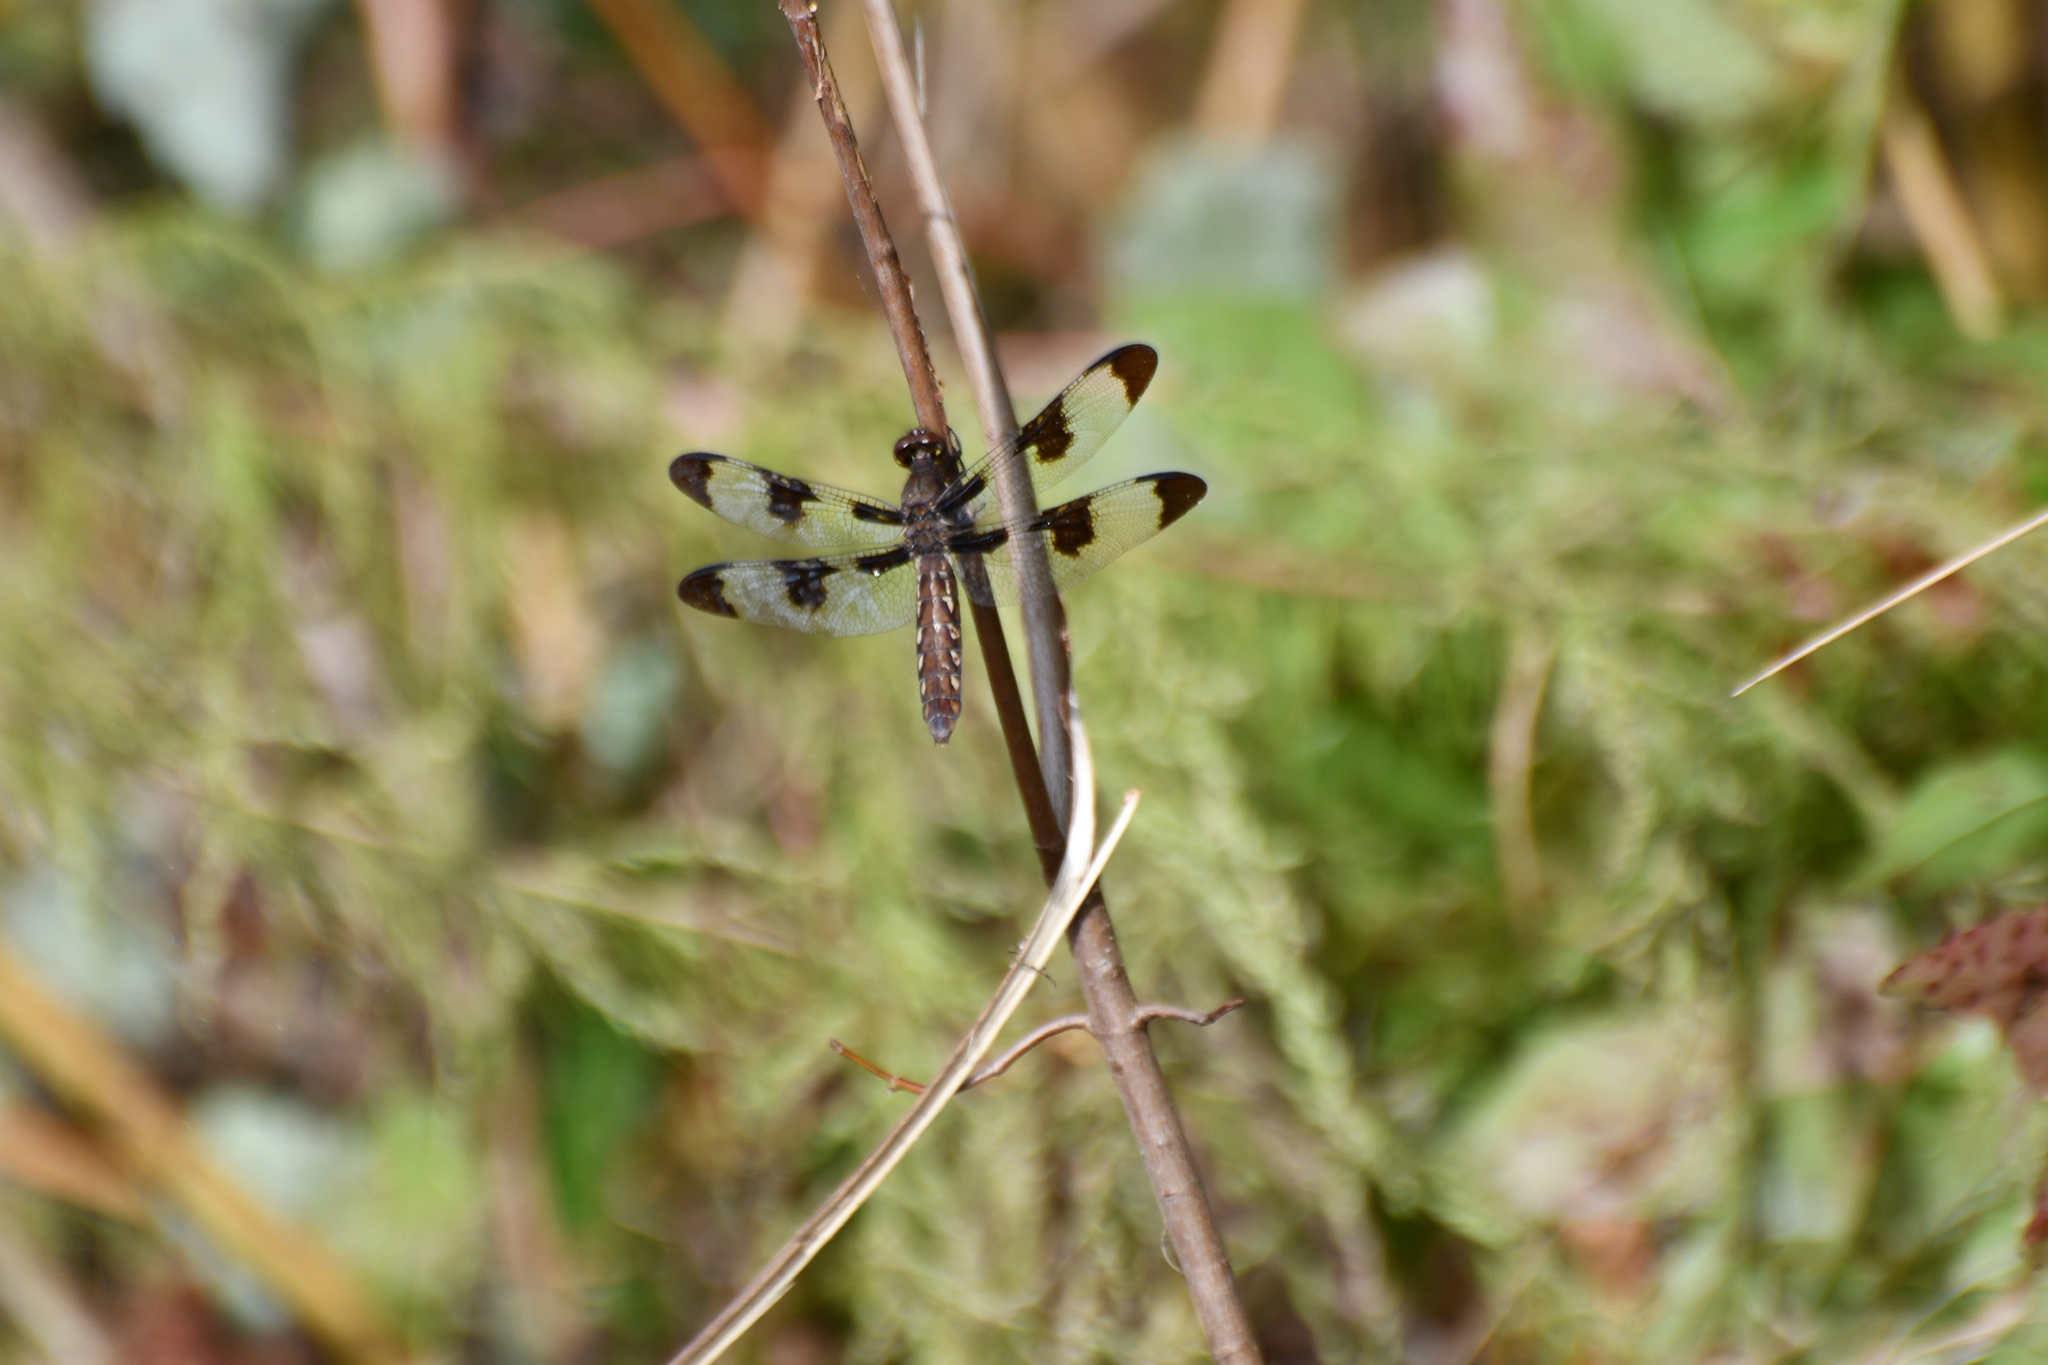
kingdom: Animalia
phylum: Arthropoda
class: Insecta
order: Odonata
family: Libellulidae
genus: Plathemis
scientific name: Plathemis lydia
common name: Common whitetail
